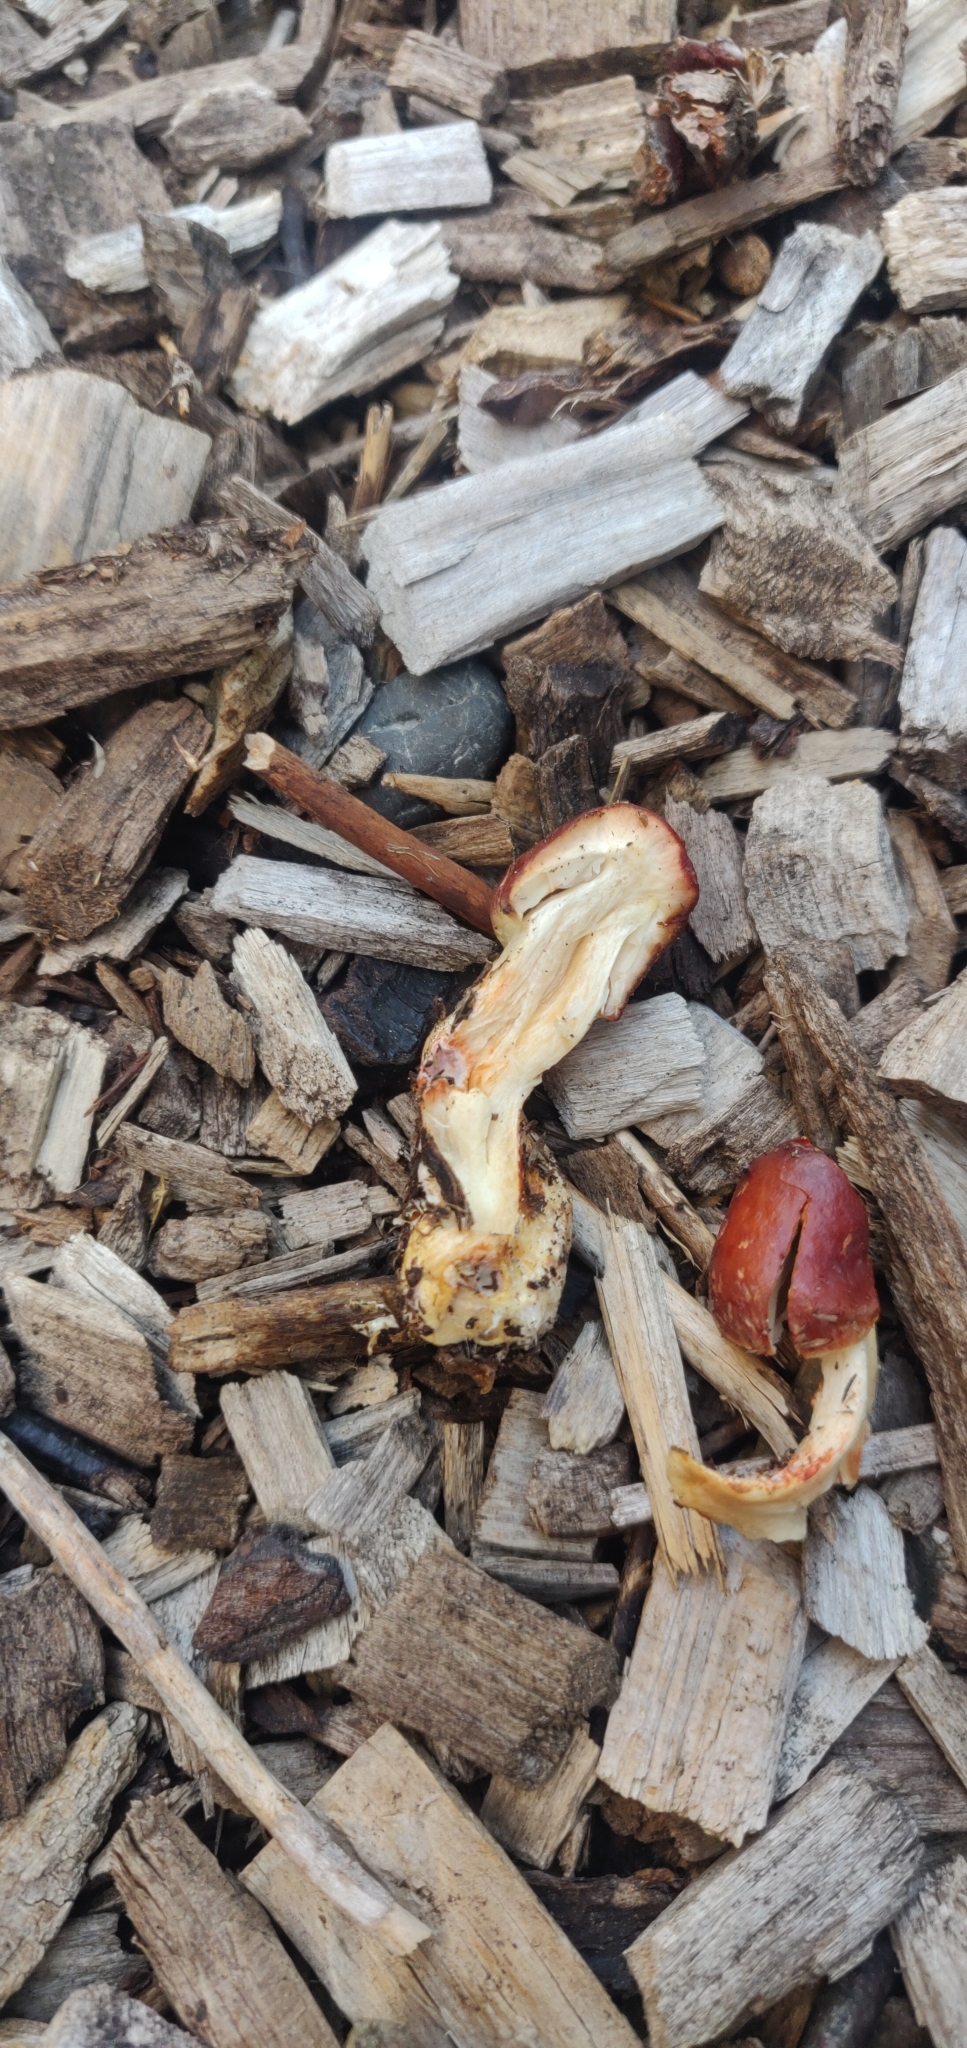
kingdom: Fungi
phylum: Basidiomycota
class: Agaricomycetes
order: Agaricales
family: Strophariaceae
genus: Leratiomyces
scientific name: Leratiomyces ceres
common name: Redlead roundhead
